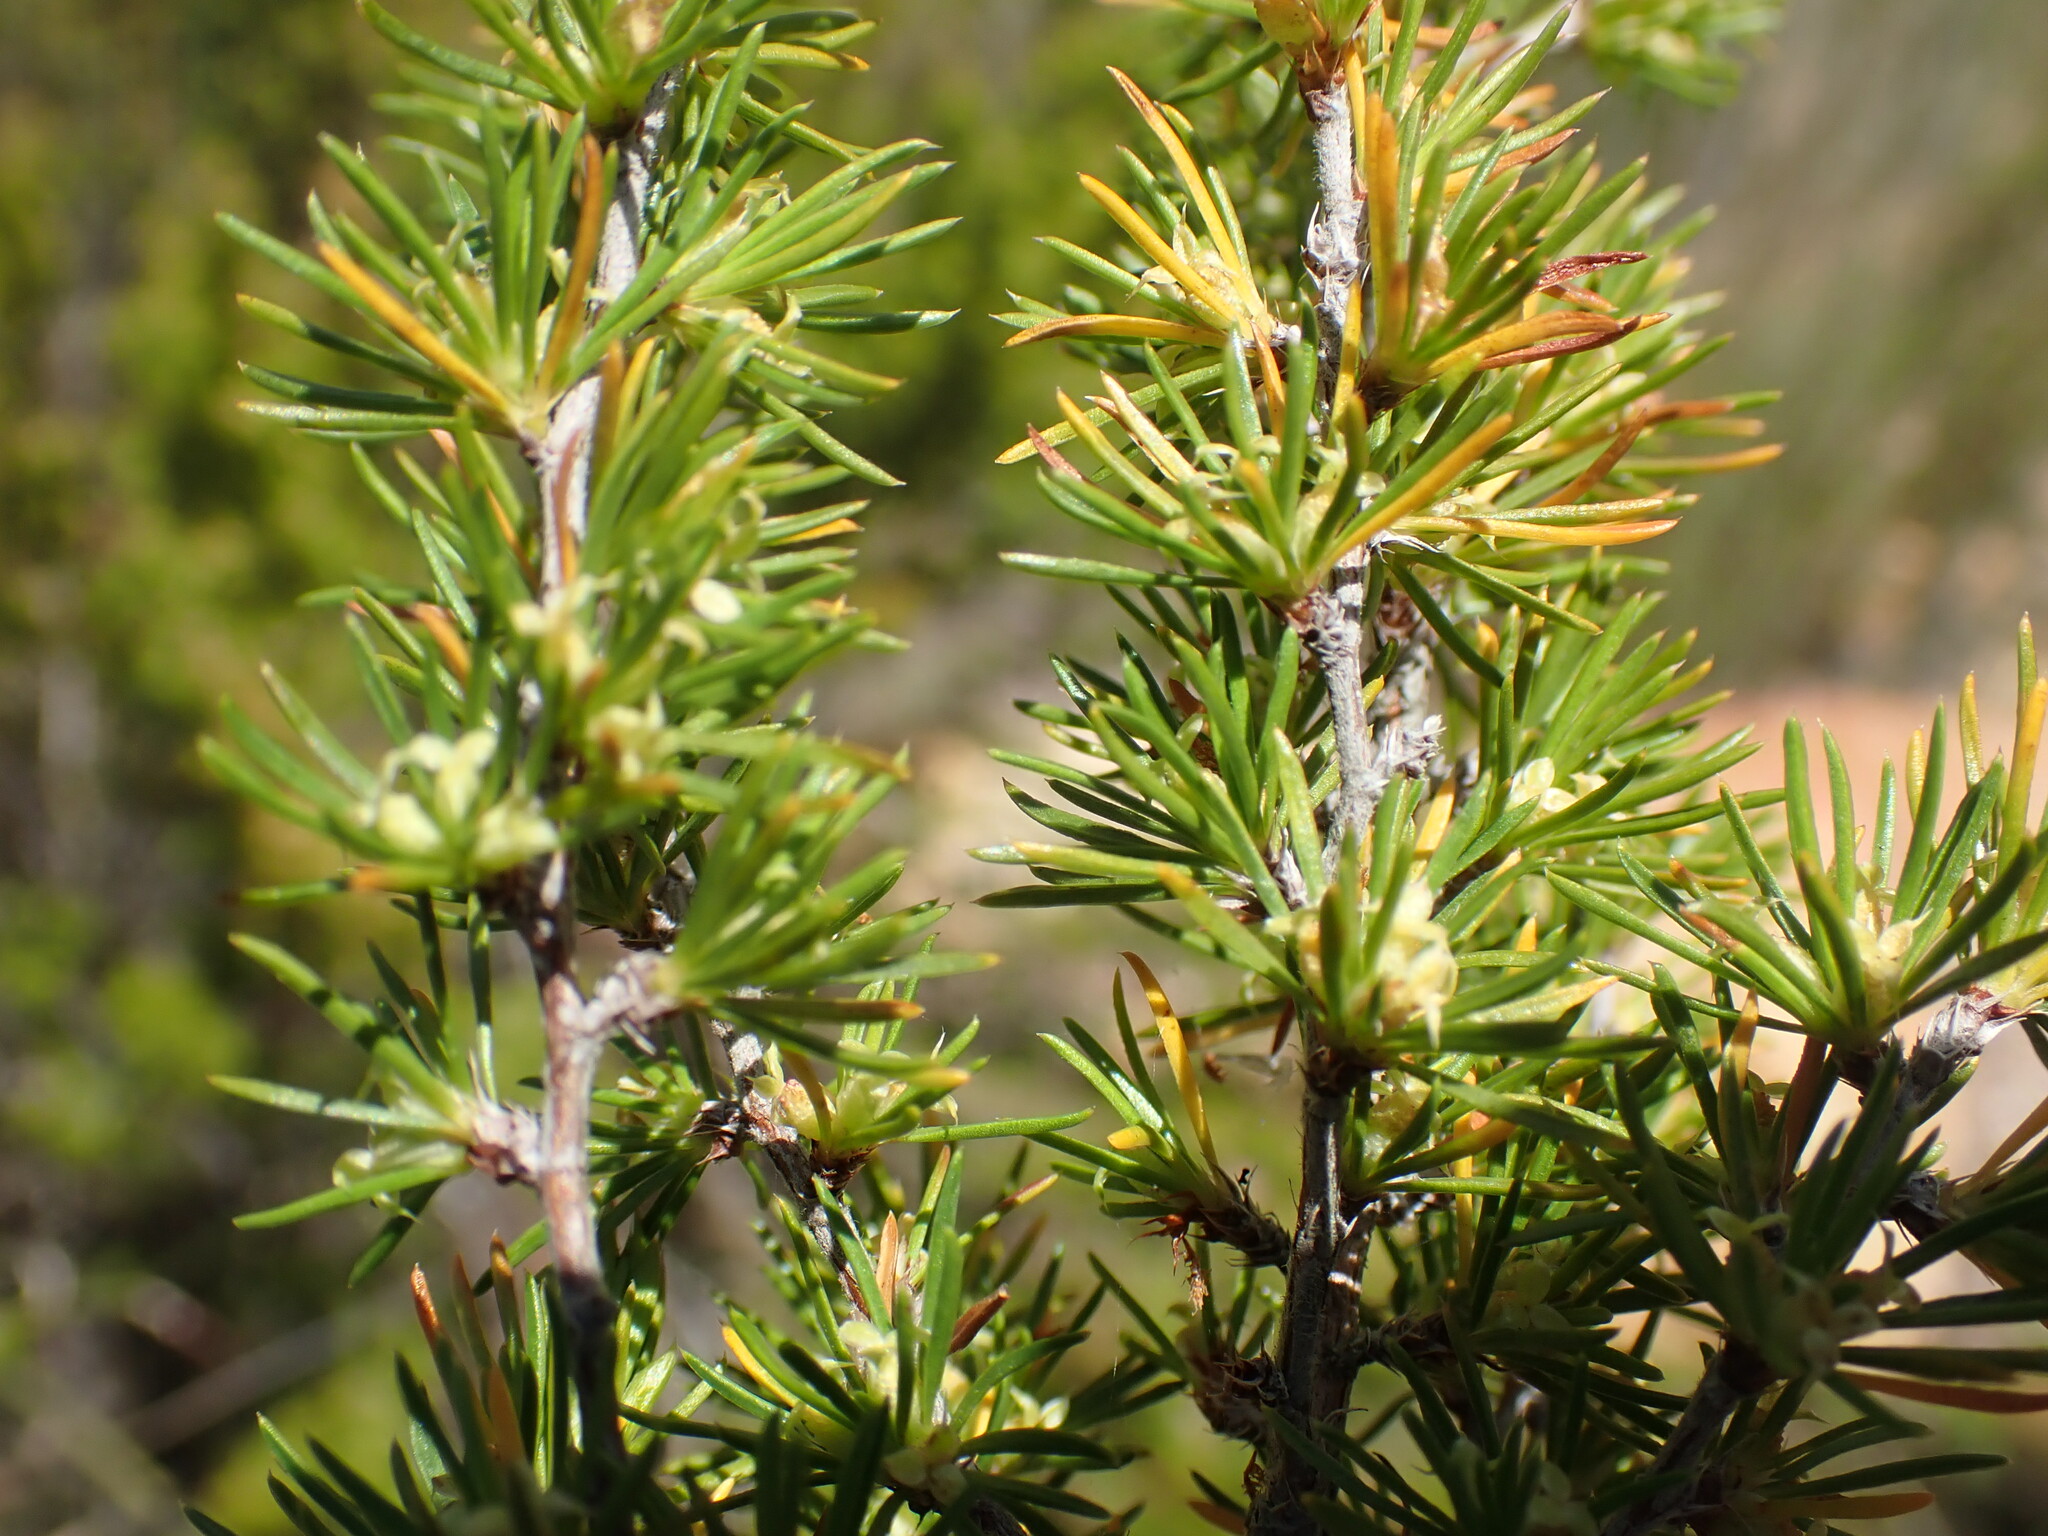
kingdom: Plantae
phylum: Tracheophyta
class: Magnoliopsida
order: Rosales
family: Rosaceae
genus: Cliffortia
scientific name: Cliffortia tuberculata
